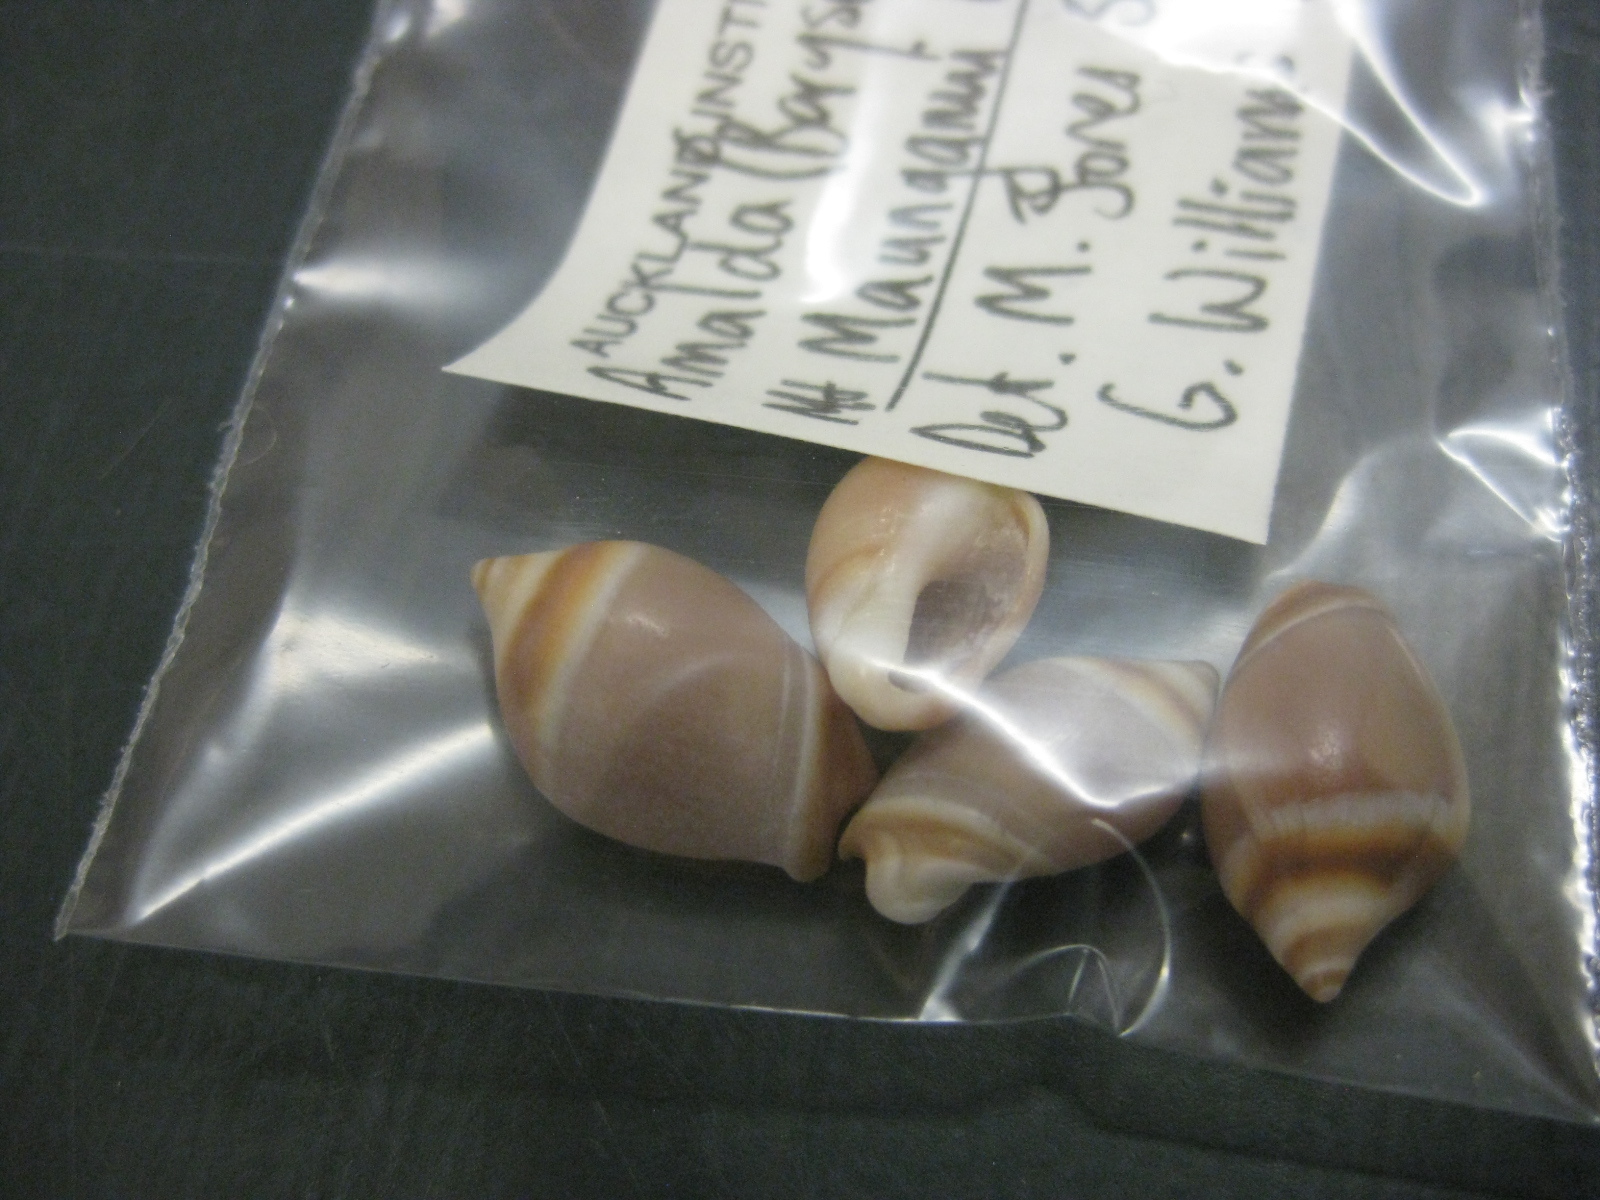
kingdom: Animalia
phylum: Mollusca
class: Gastropoda
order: Neogastropoda
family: Ancillariidae
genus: Amalda
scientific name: Amalda depressa
